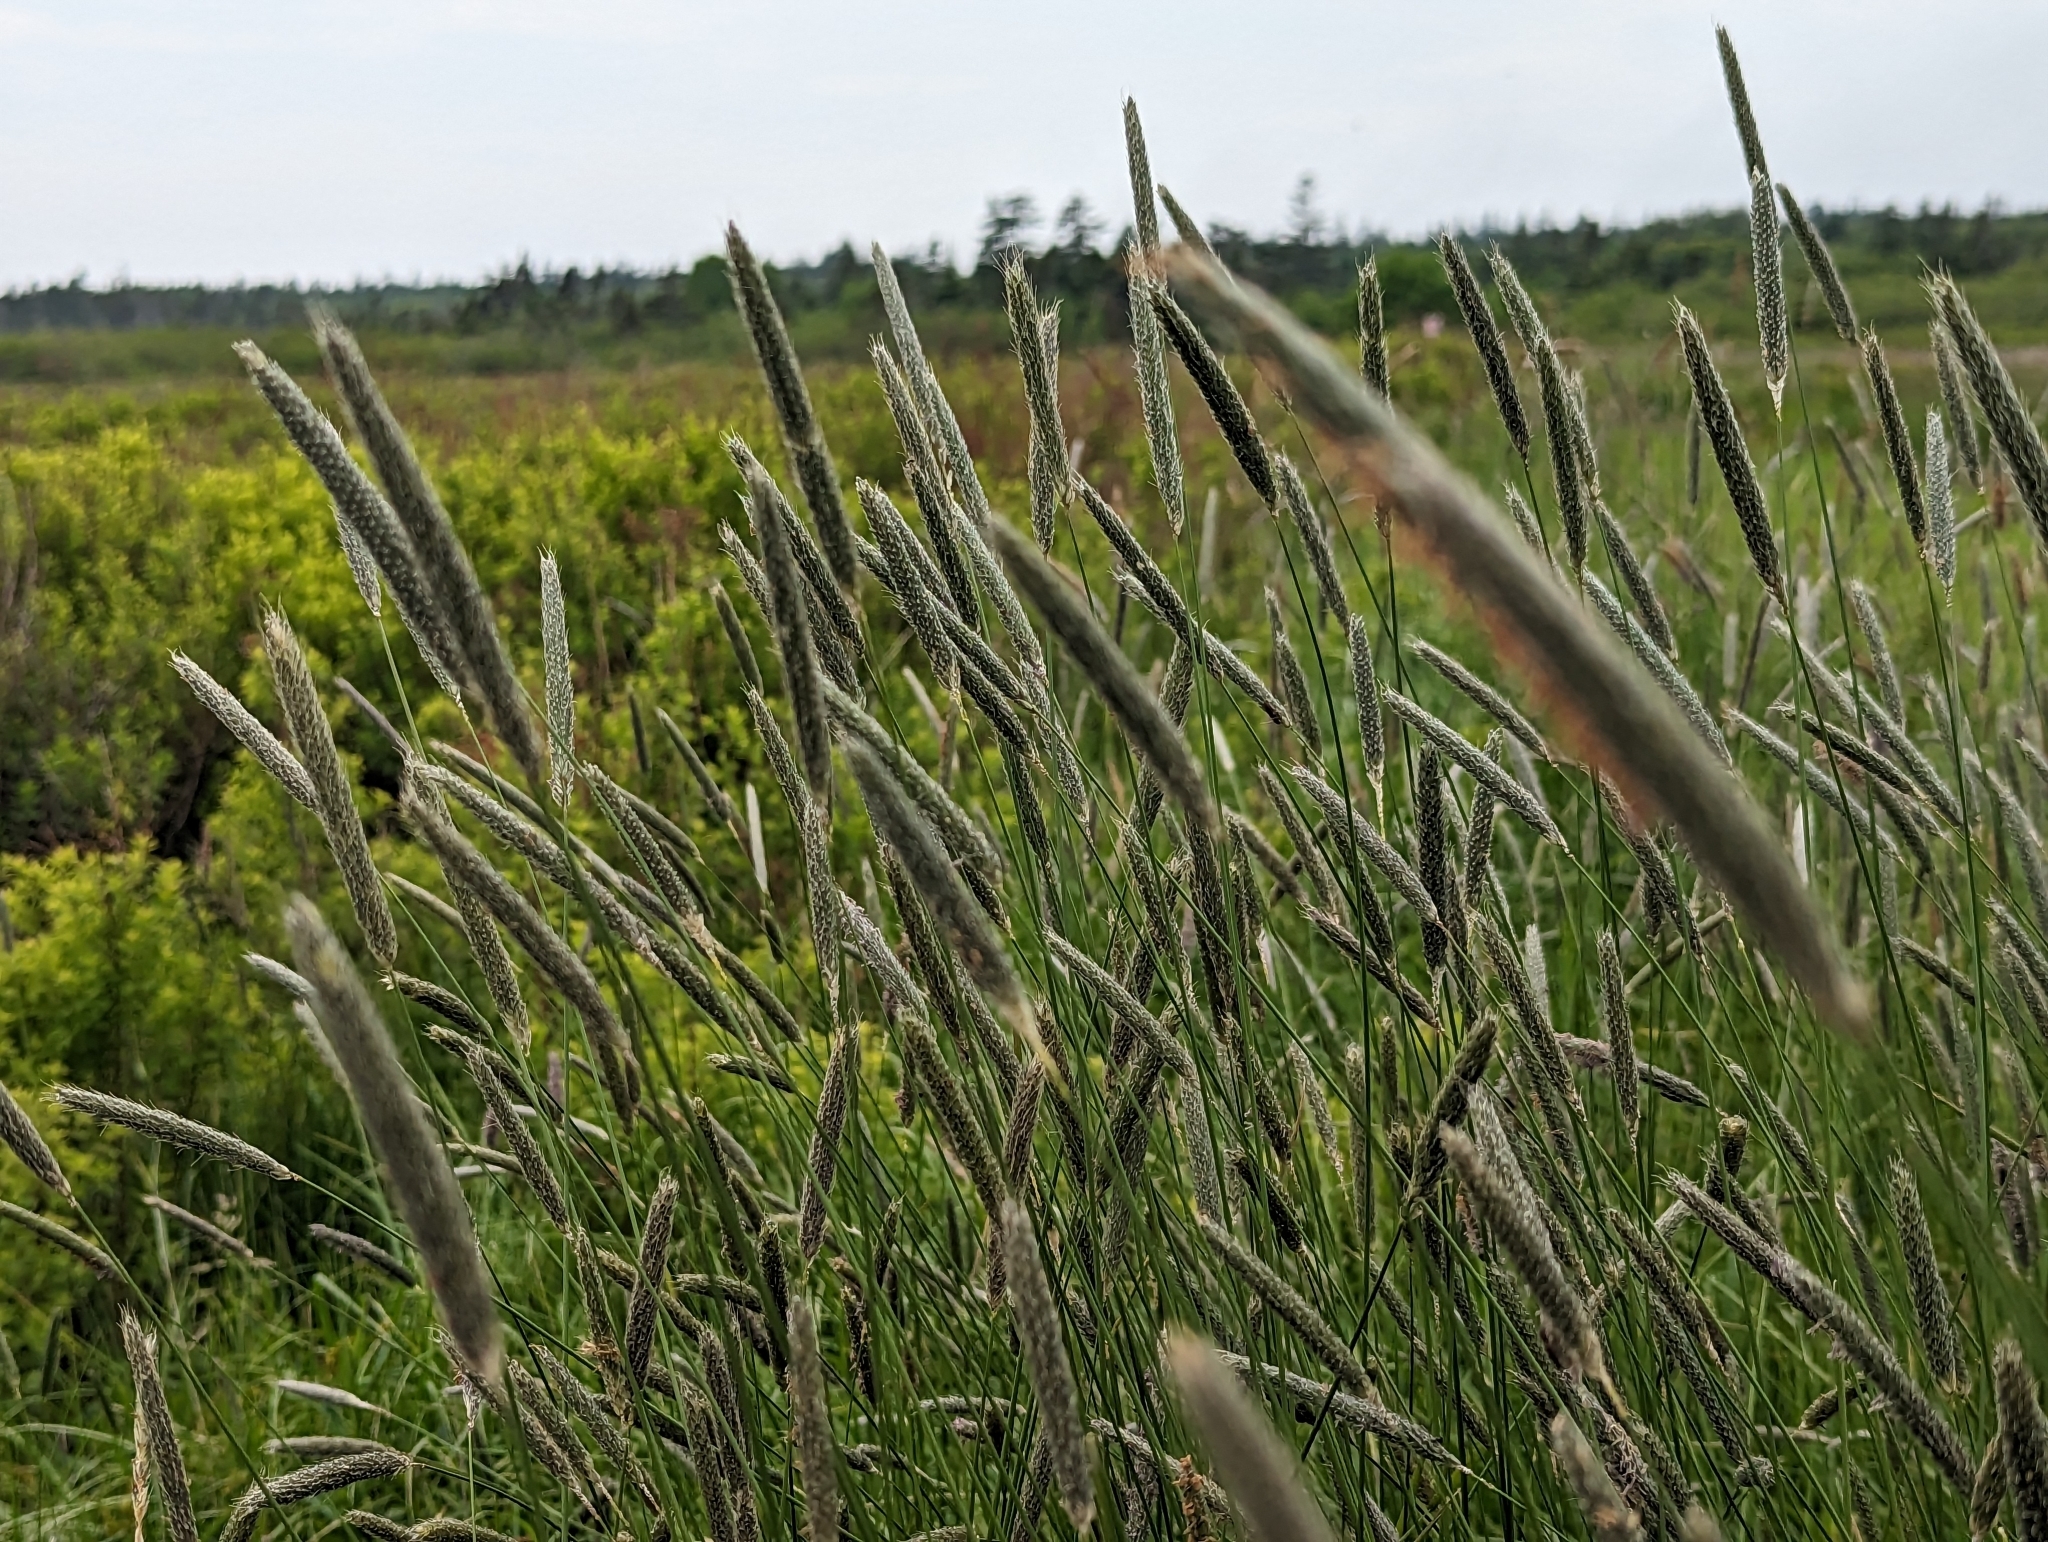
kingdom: Plantae
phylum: Tracheophyta
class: Liliopsida
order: Poales
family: Poaceae
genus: Alopecurus
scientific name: Alopecurus pratensis
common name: Meadow foxtail
